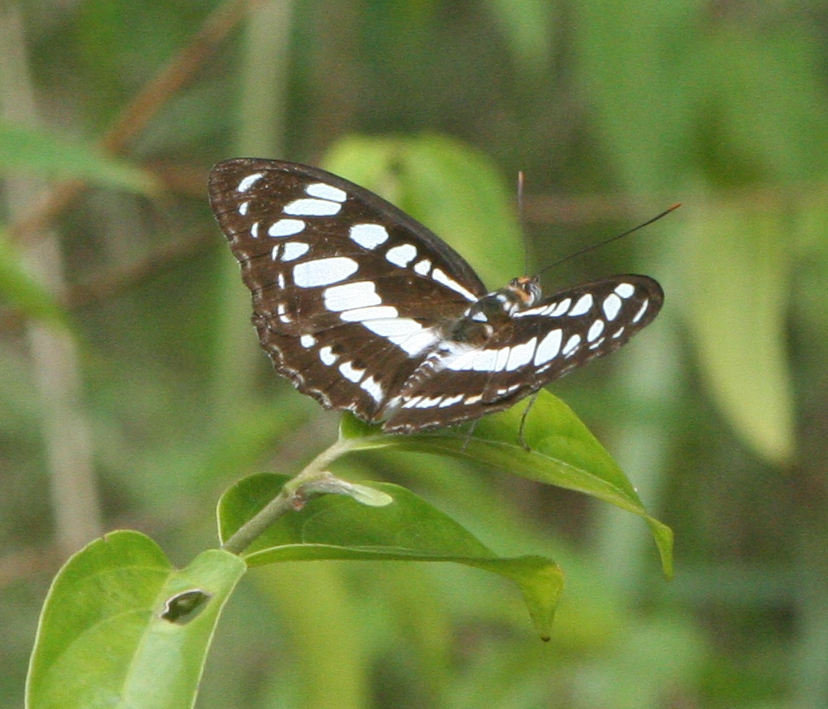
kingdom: Animalia
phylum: Arthropoda
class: Insecta
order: Lepidoptera
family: Nymphalidae
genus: Parathyma
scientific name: Parathyma perius
